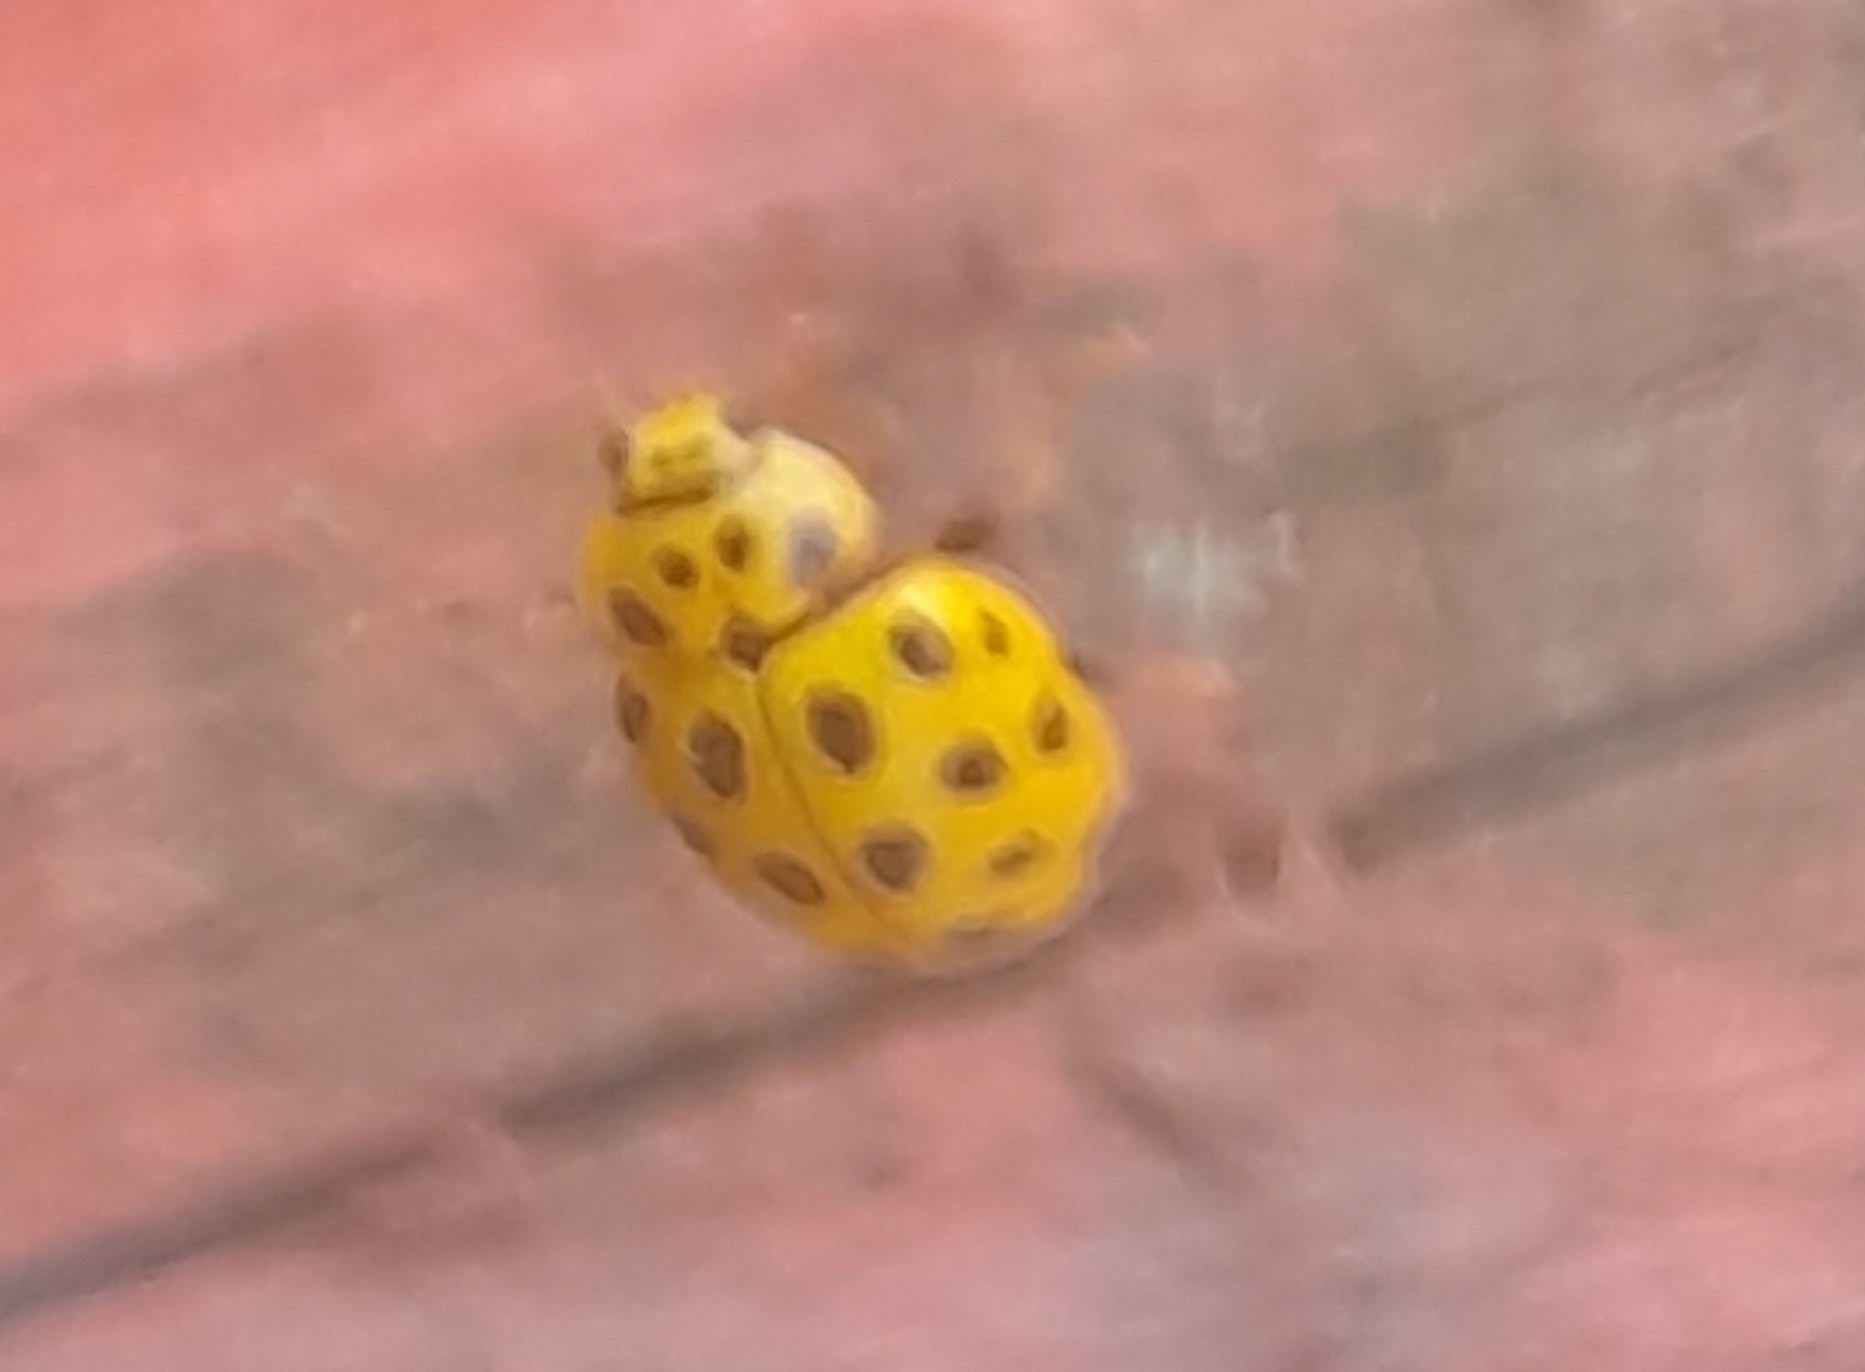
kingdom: Animalia
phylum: Arthropoda
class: Insecta
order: Coleoptera
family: Coccinellidae
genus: Psyllobora
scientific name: Psyllobora vigintiduopunctata
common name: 22-spot ladybird
